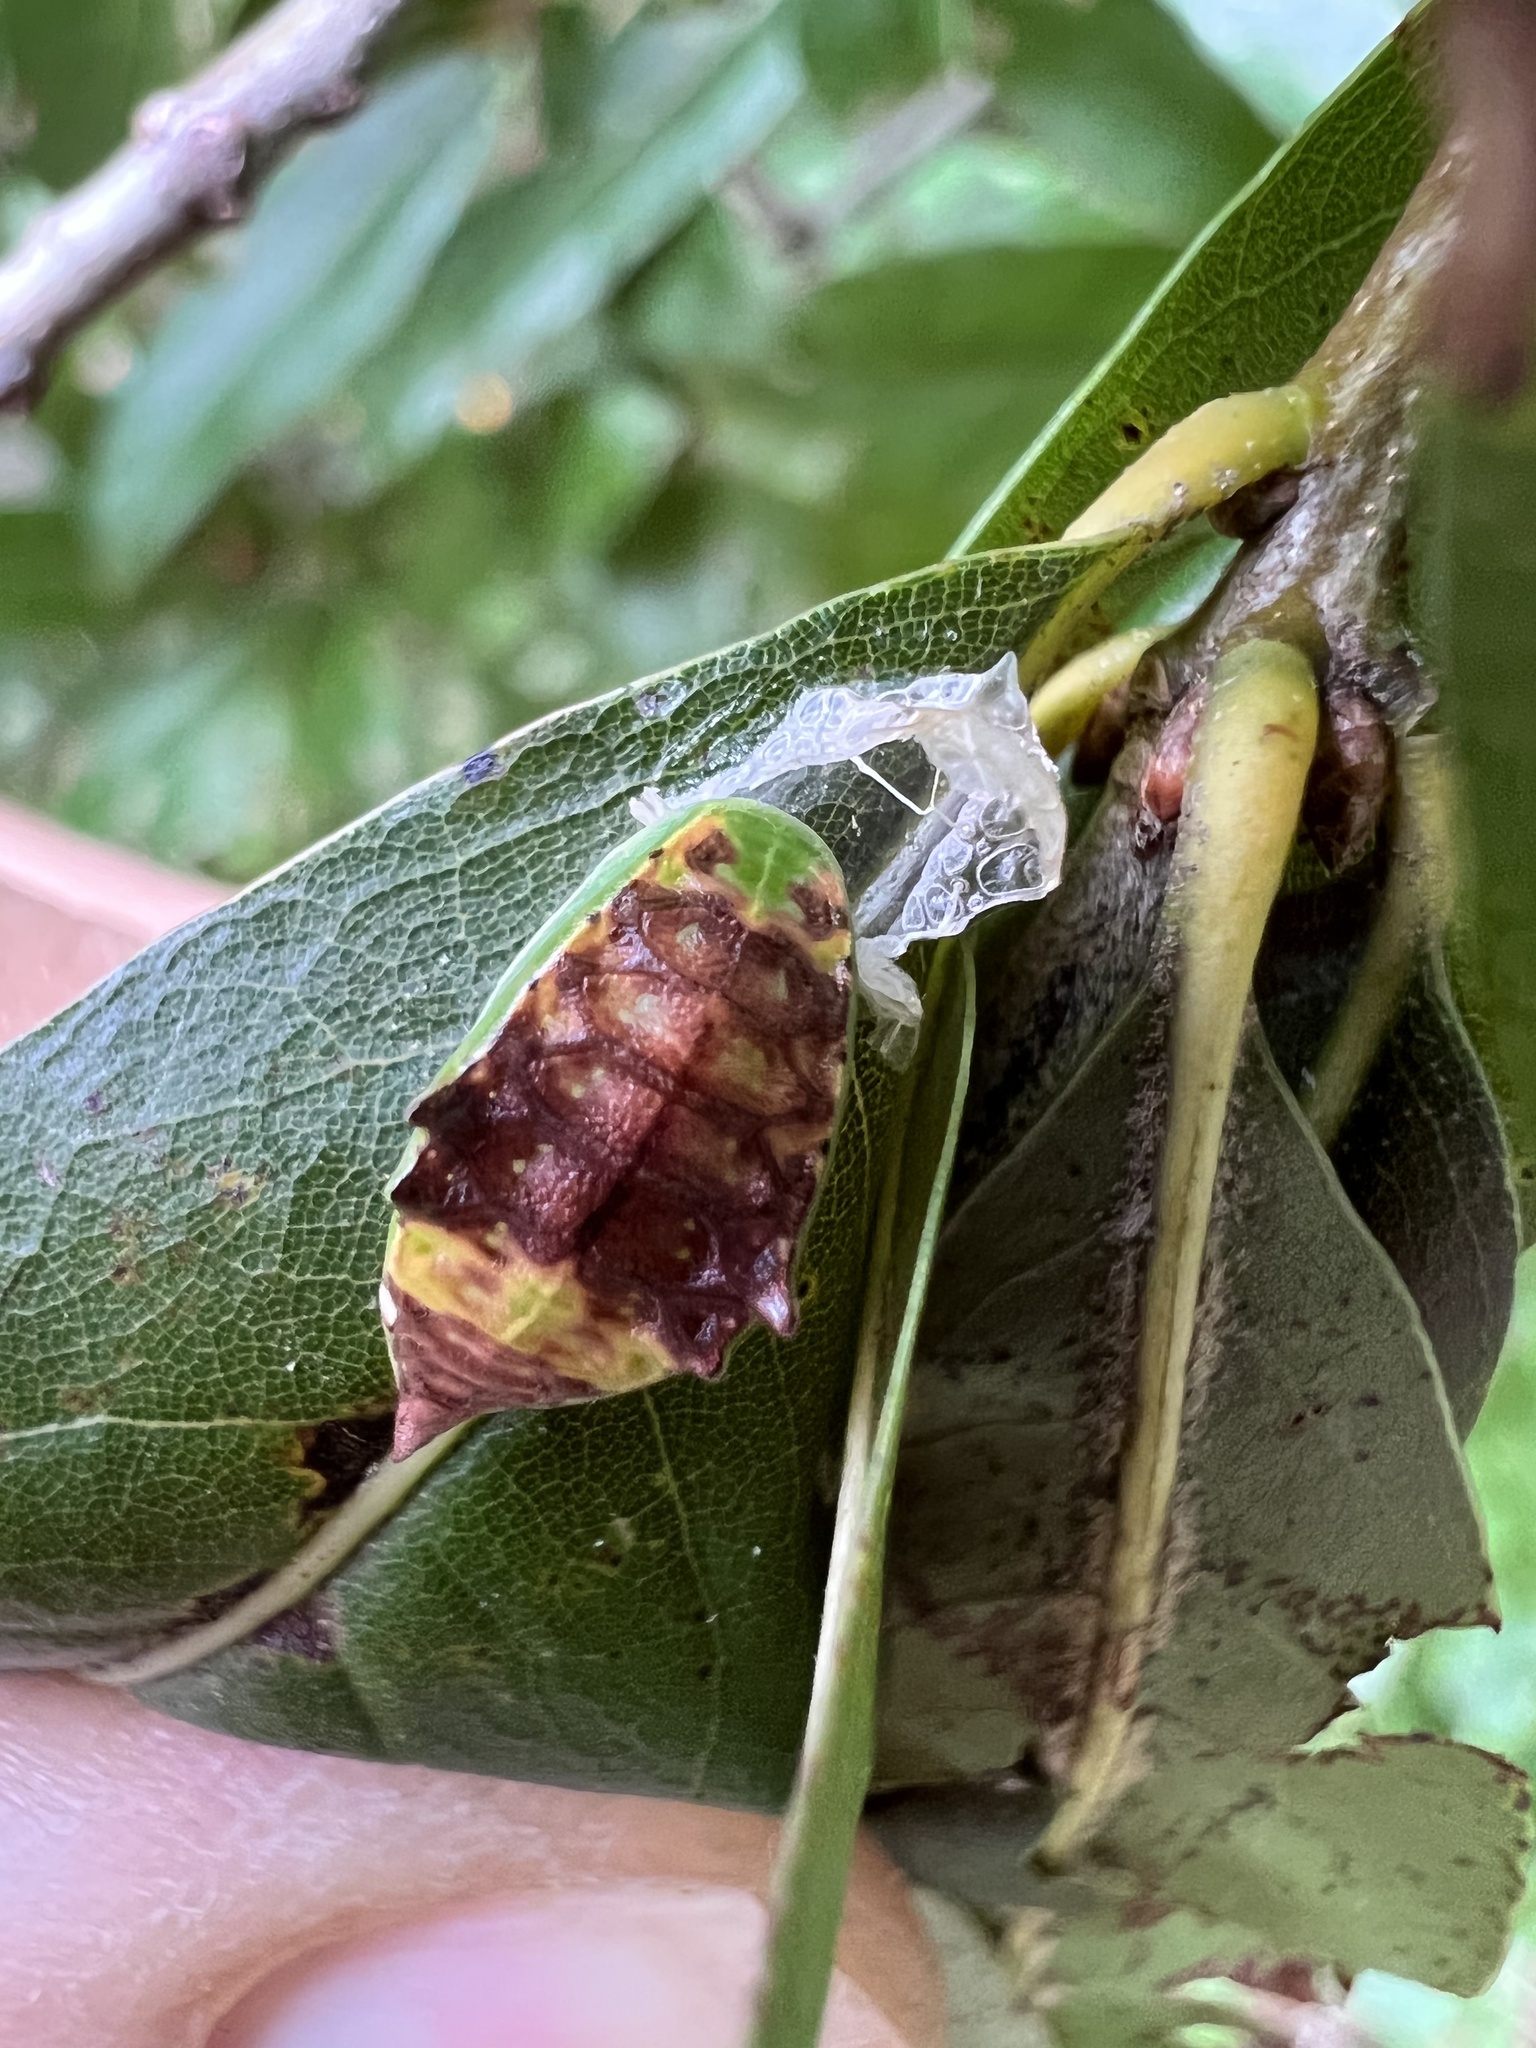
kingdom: Animalia
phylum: Arthropoda
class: Insecta
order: Lepidoptera
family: Limacodidae
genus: Prolimacodes
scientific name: Prolimacodes badia
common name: Skiff moth
